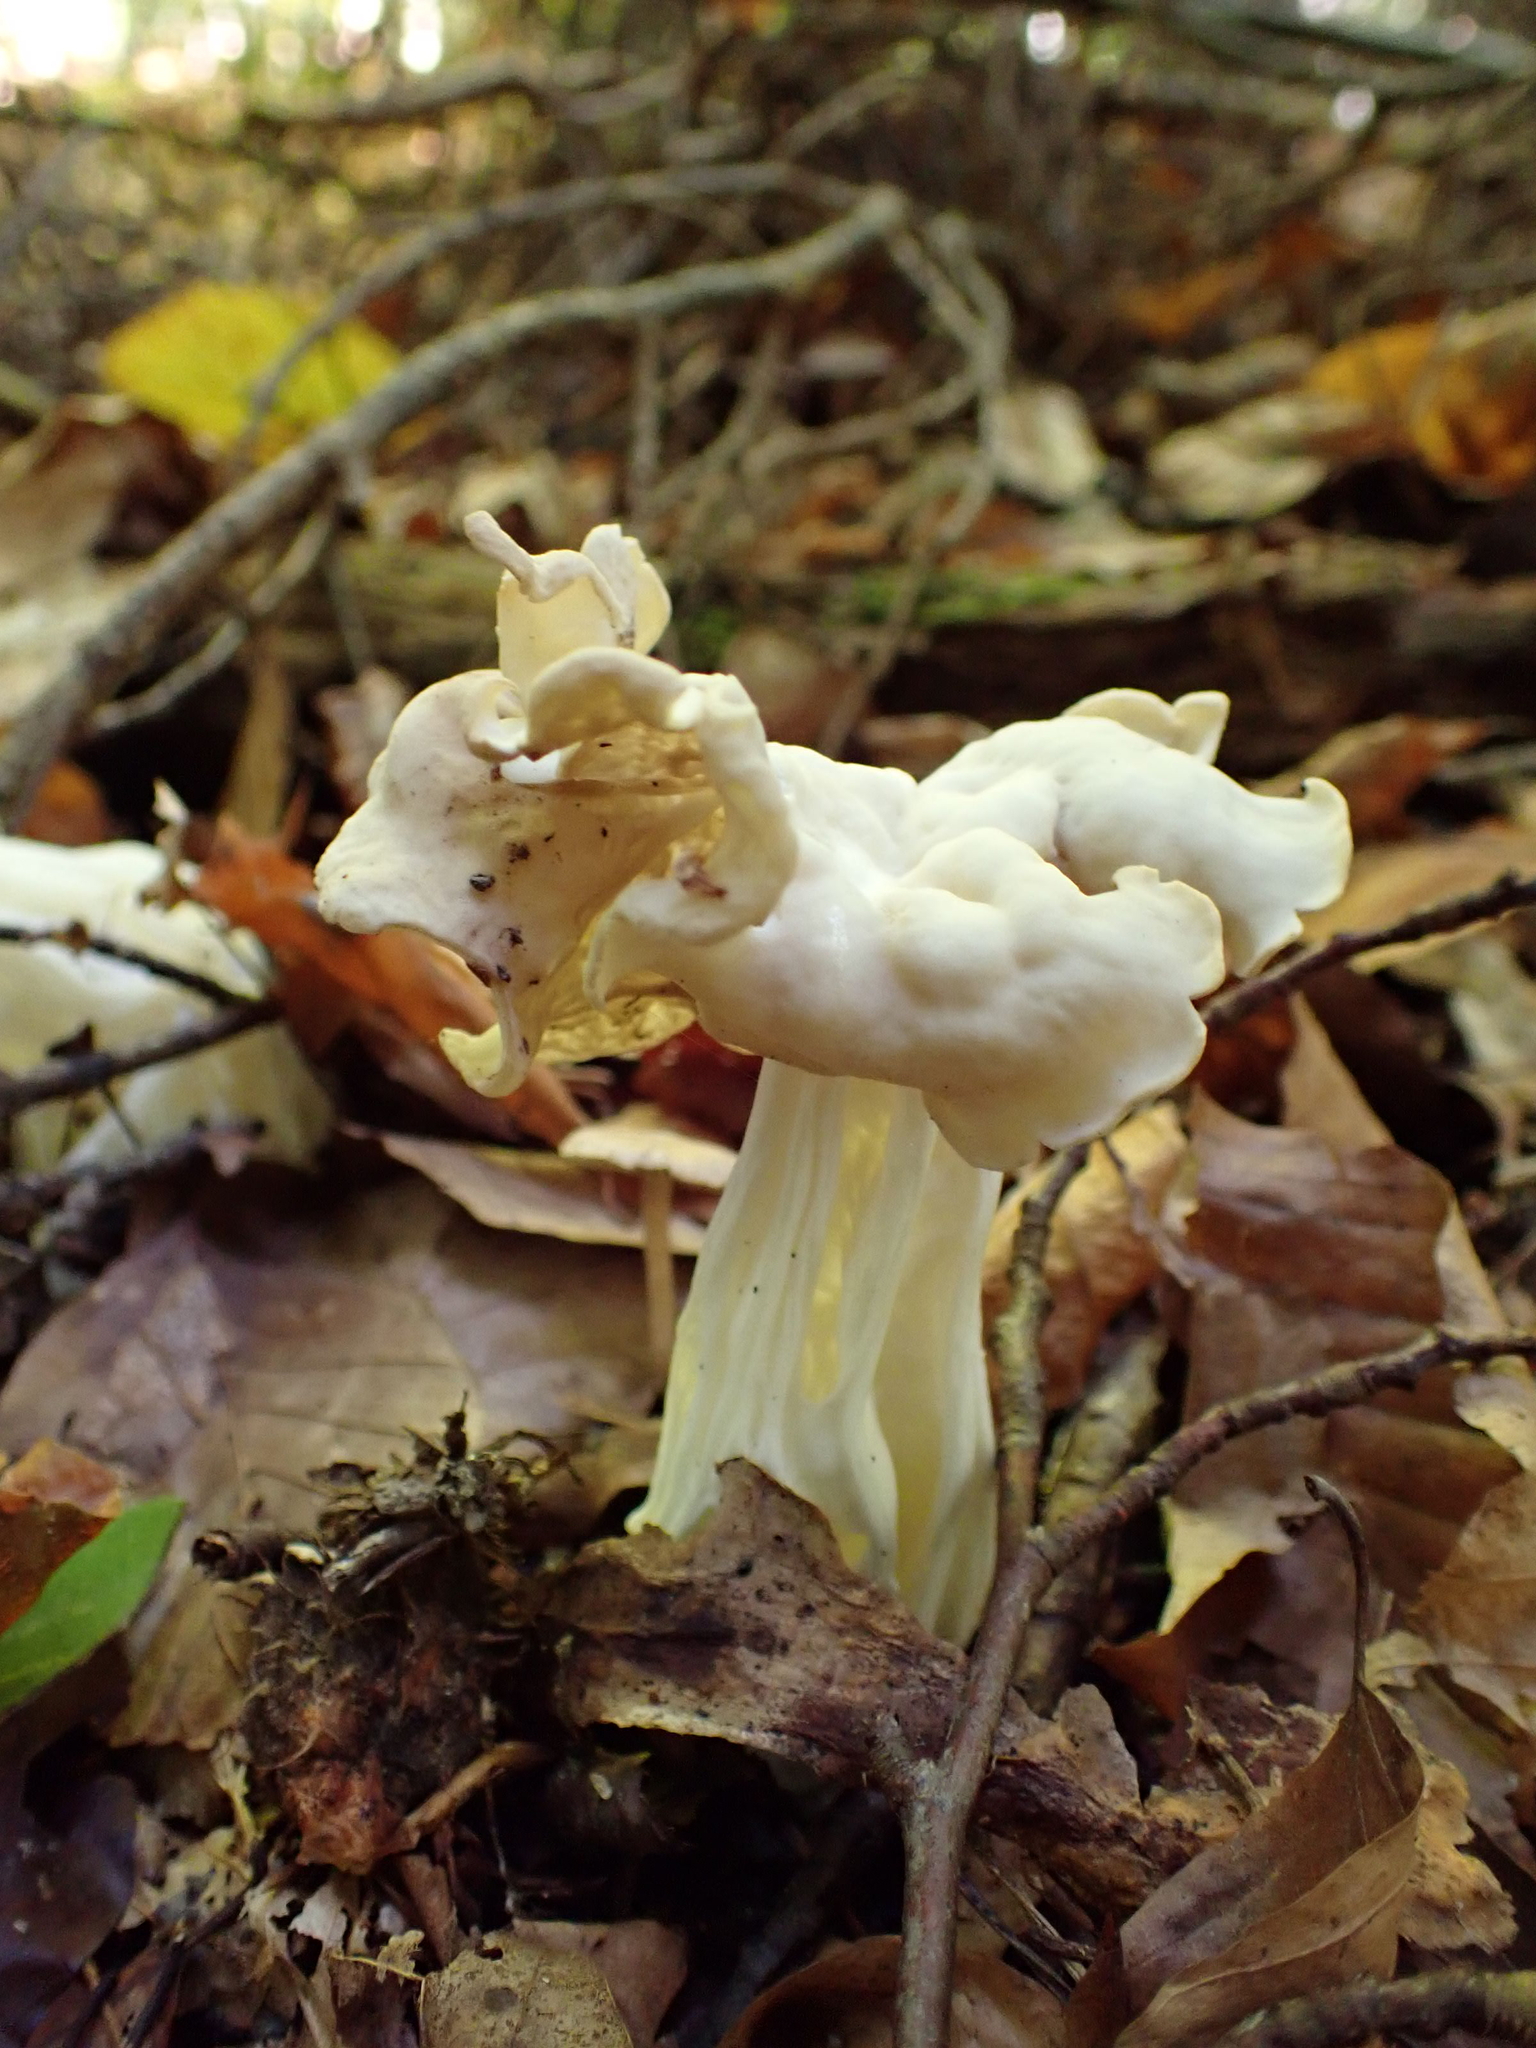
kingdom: Fungi
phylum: Ascomycota
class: Pezizomycetes
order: Pezizales
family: Helvellaceae
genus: Helvella
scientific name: Helvella crispa
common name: White saddle
